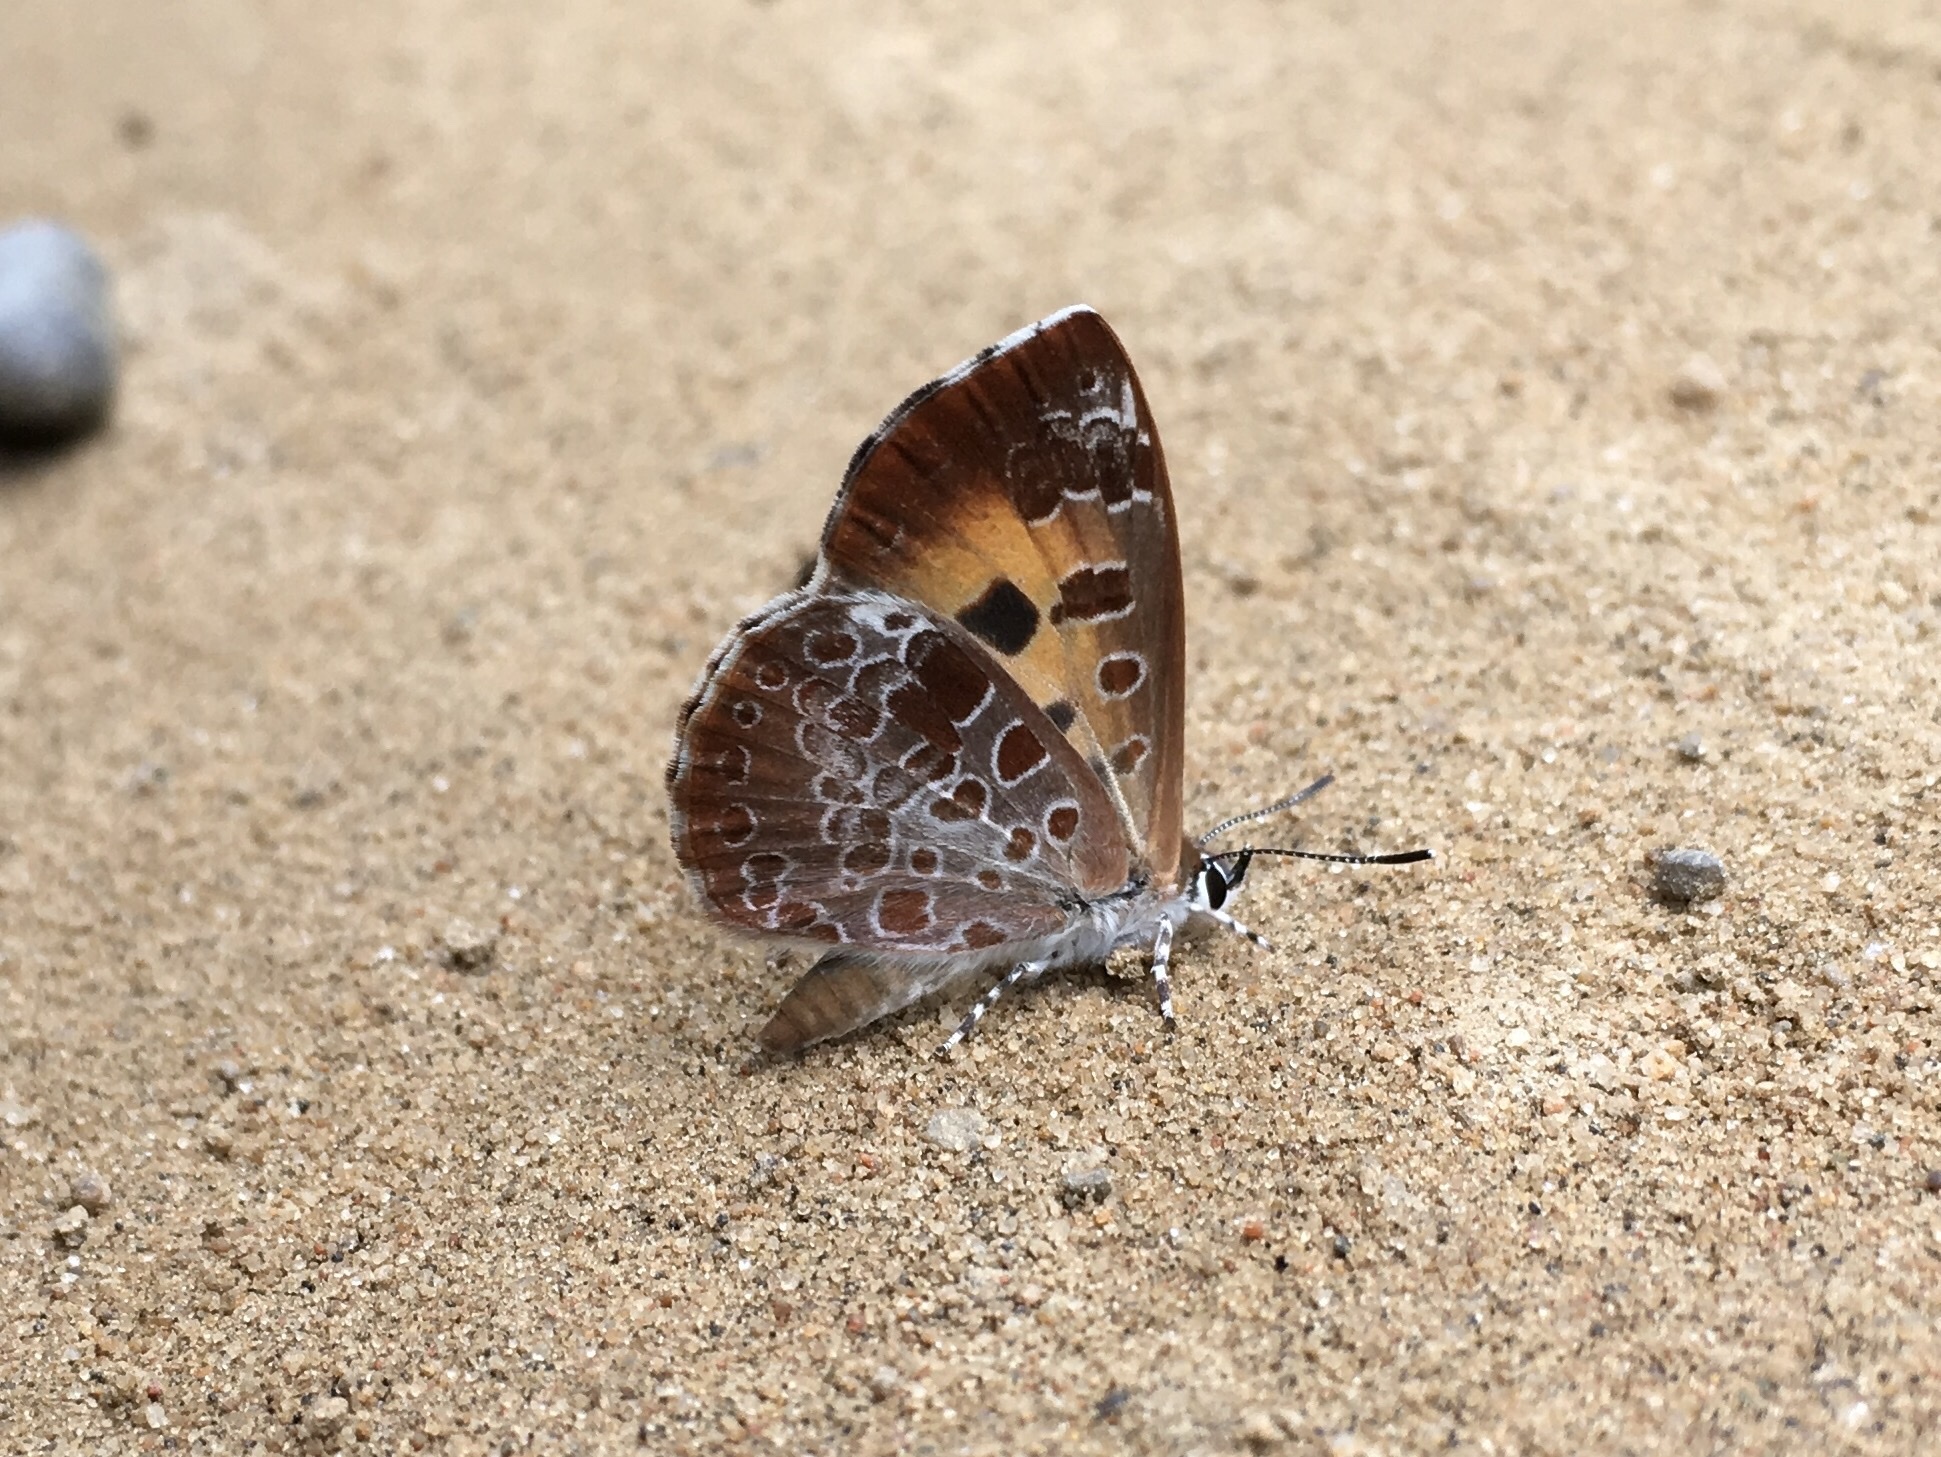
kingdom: Animalia
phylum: Arthropoda
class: Insecta
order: Lepidoptera
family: Lycaenidae
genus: Feniseca
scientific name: Feniseca tarquinius
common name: Harvester
